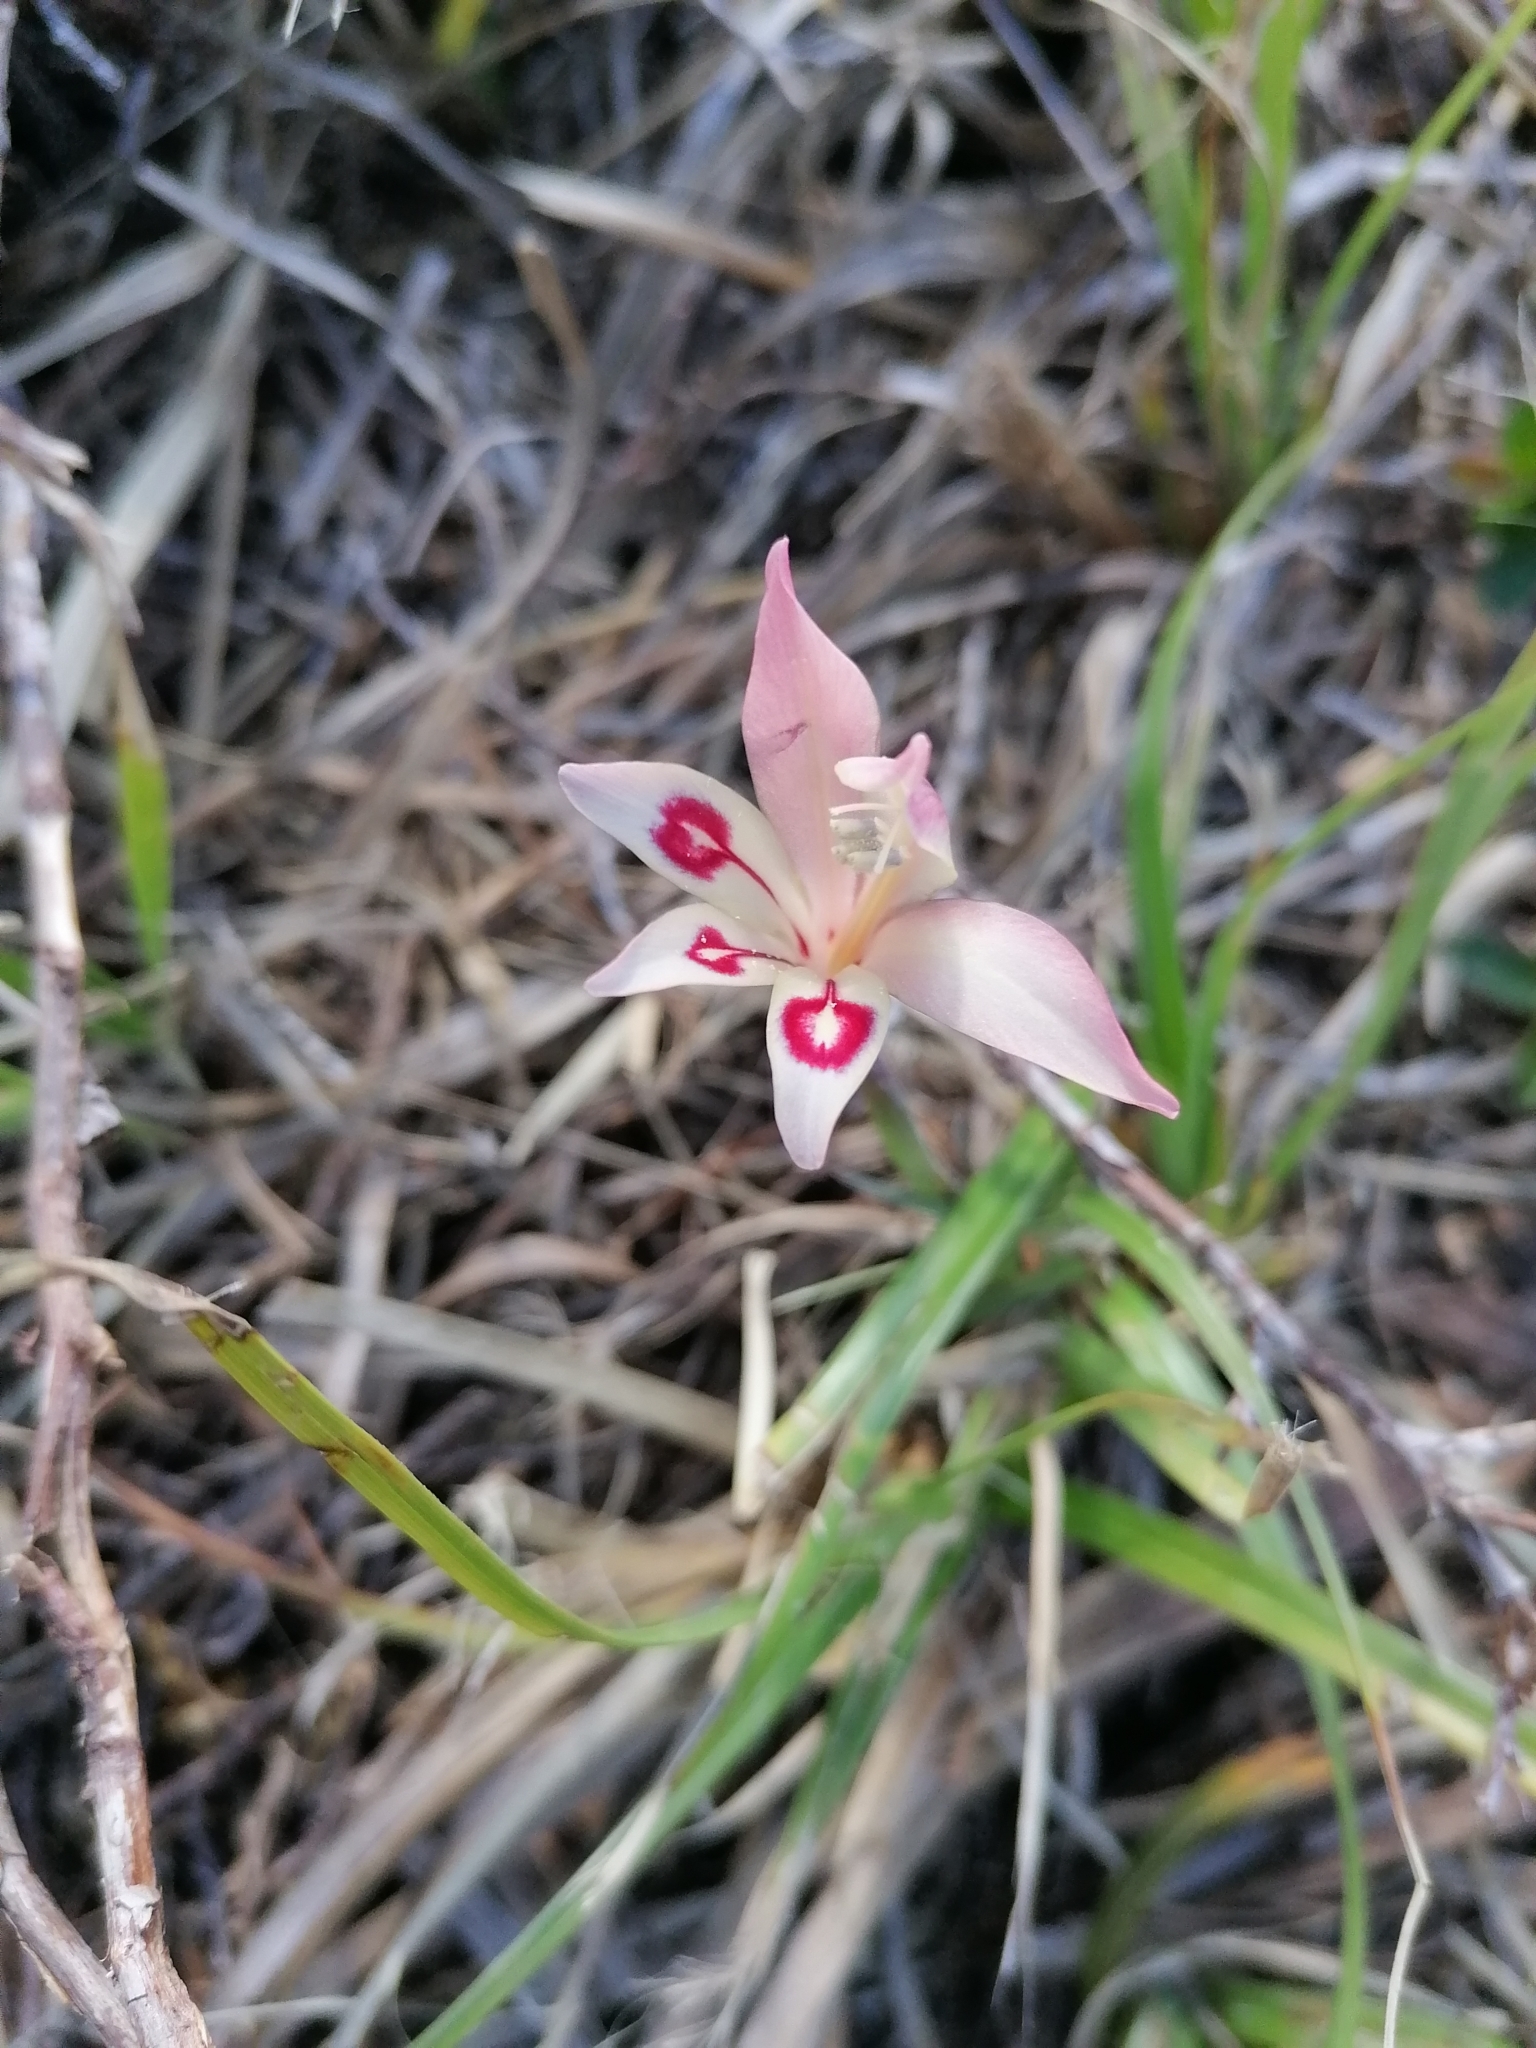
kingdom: Plantae
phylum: Tracheophyta
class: Liliopsida
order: Asparagales
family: Iridaceae
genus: Gladiolus
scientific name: Gladiolus angustus
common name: Painted-lady
